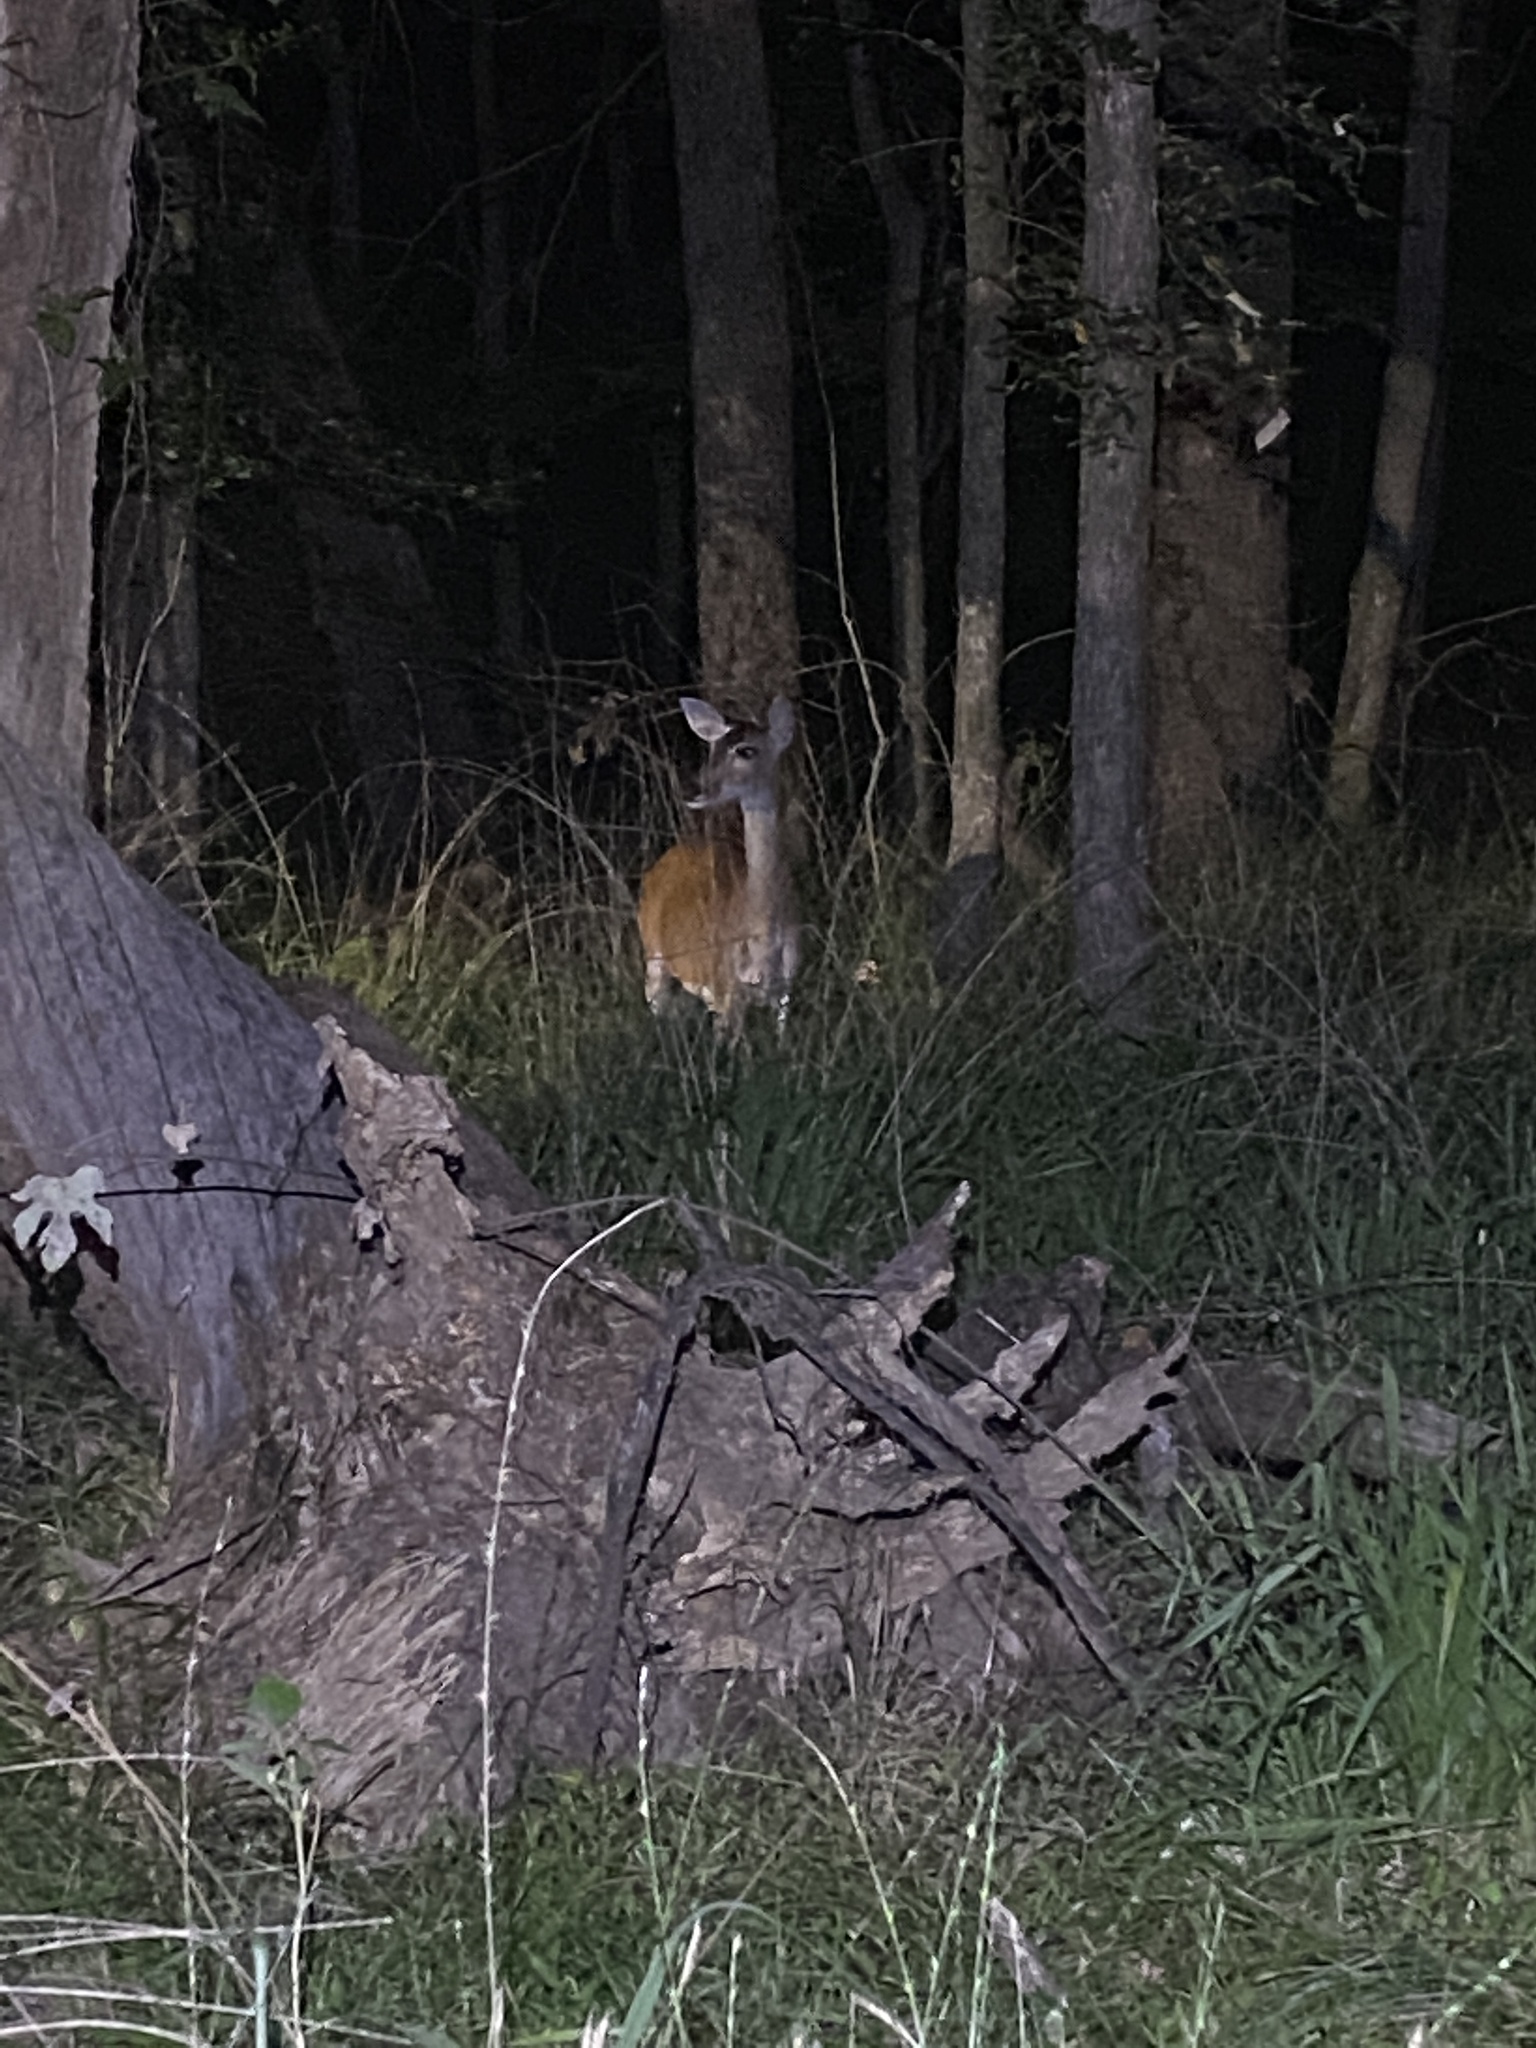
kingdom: Animalia
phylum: Chordata
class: Mammalia
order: Artiodactyla
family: Cervidae
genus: Odocoileus
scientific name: Odocoileus virginianus
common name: White-tailed deer
